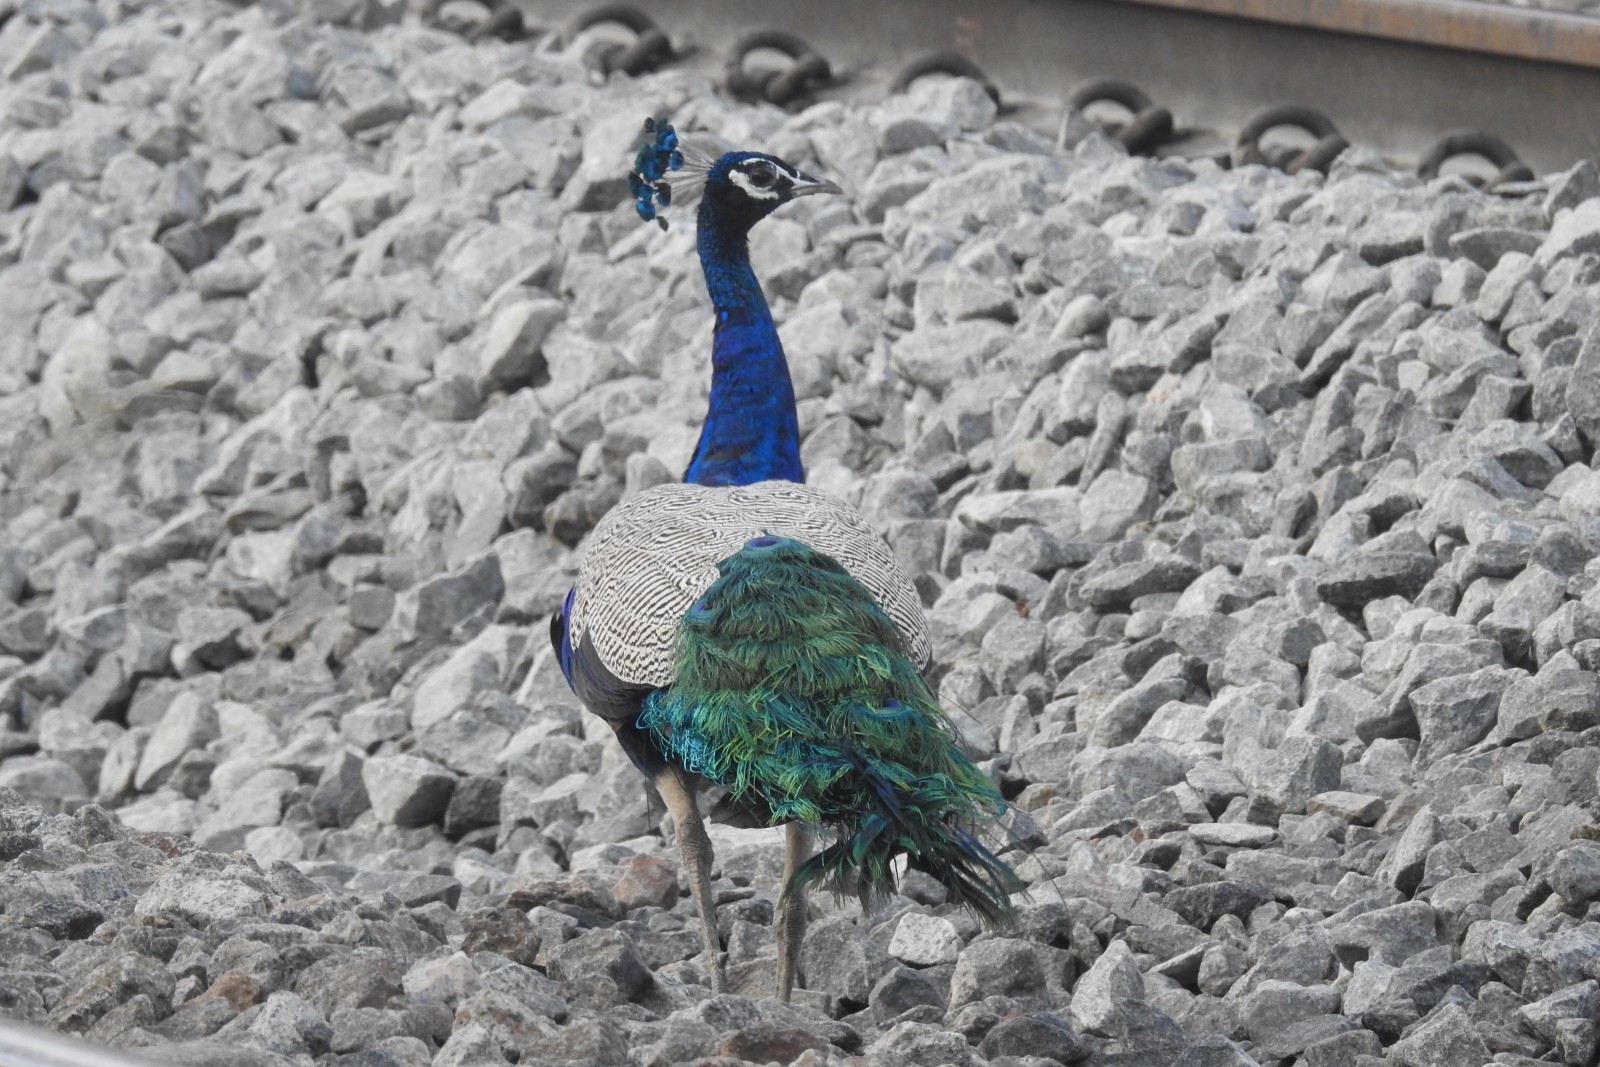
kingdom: Animalia
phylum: Chordata
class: Aves
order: Galliformes
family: Phasianidae
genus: Pavo
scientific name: Pavo cristatus
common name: Indian peafowl
